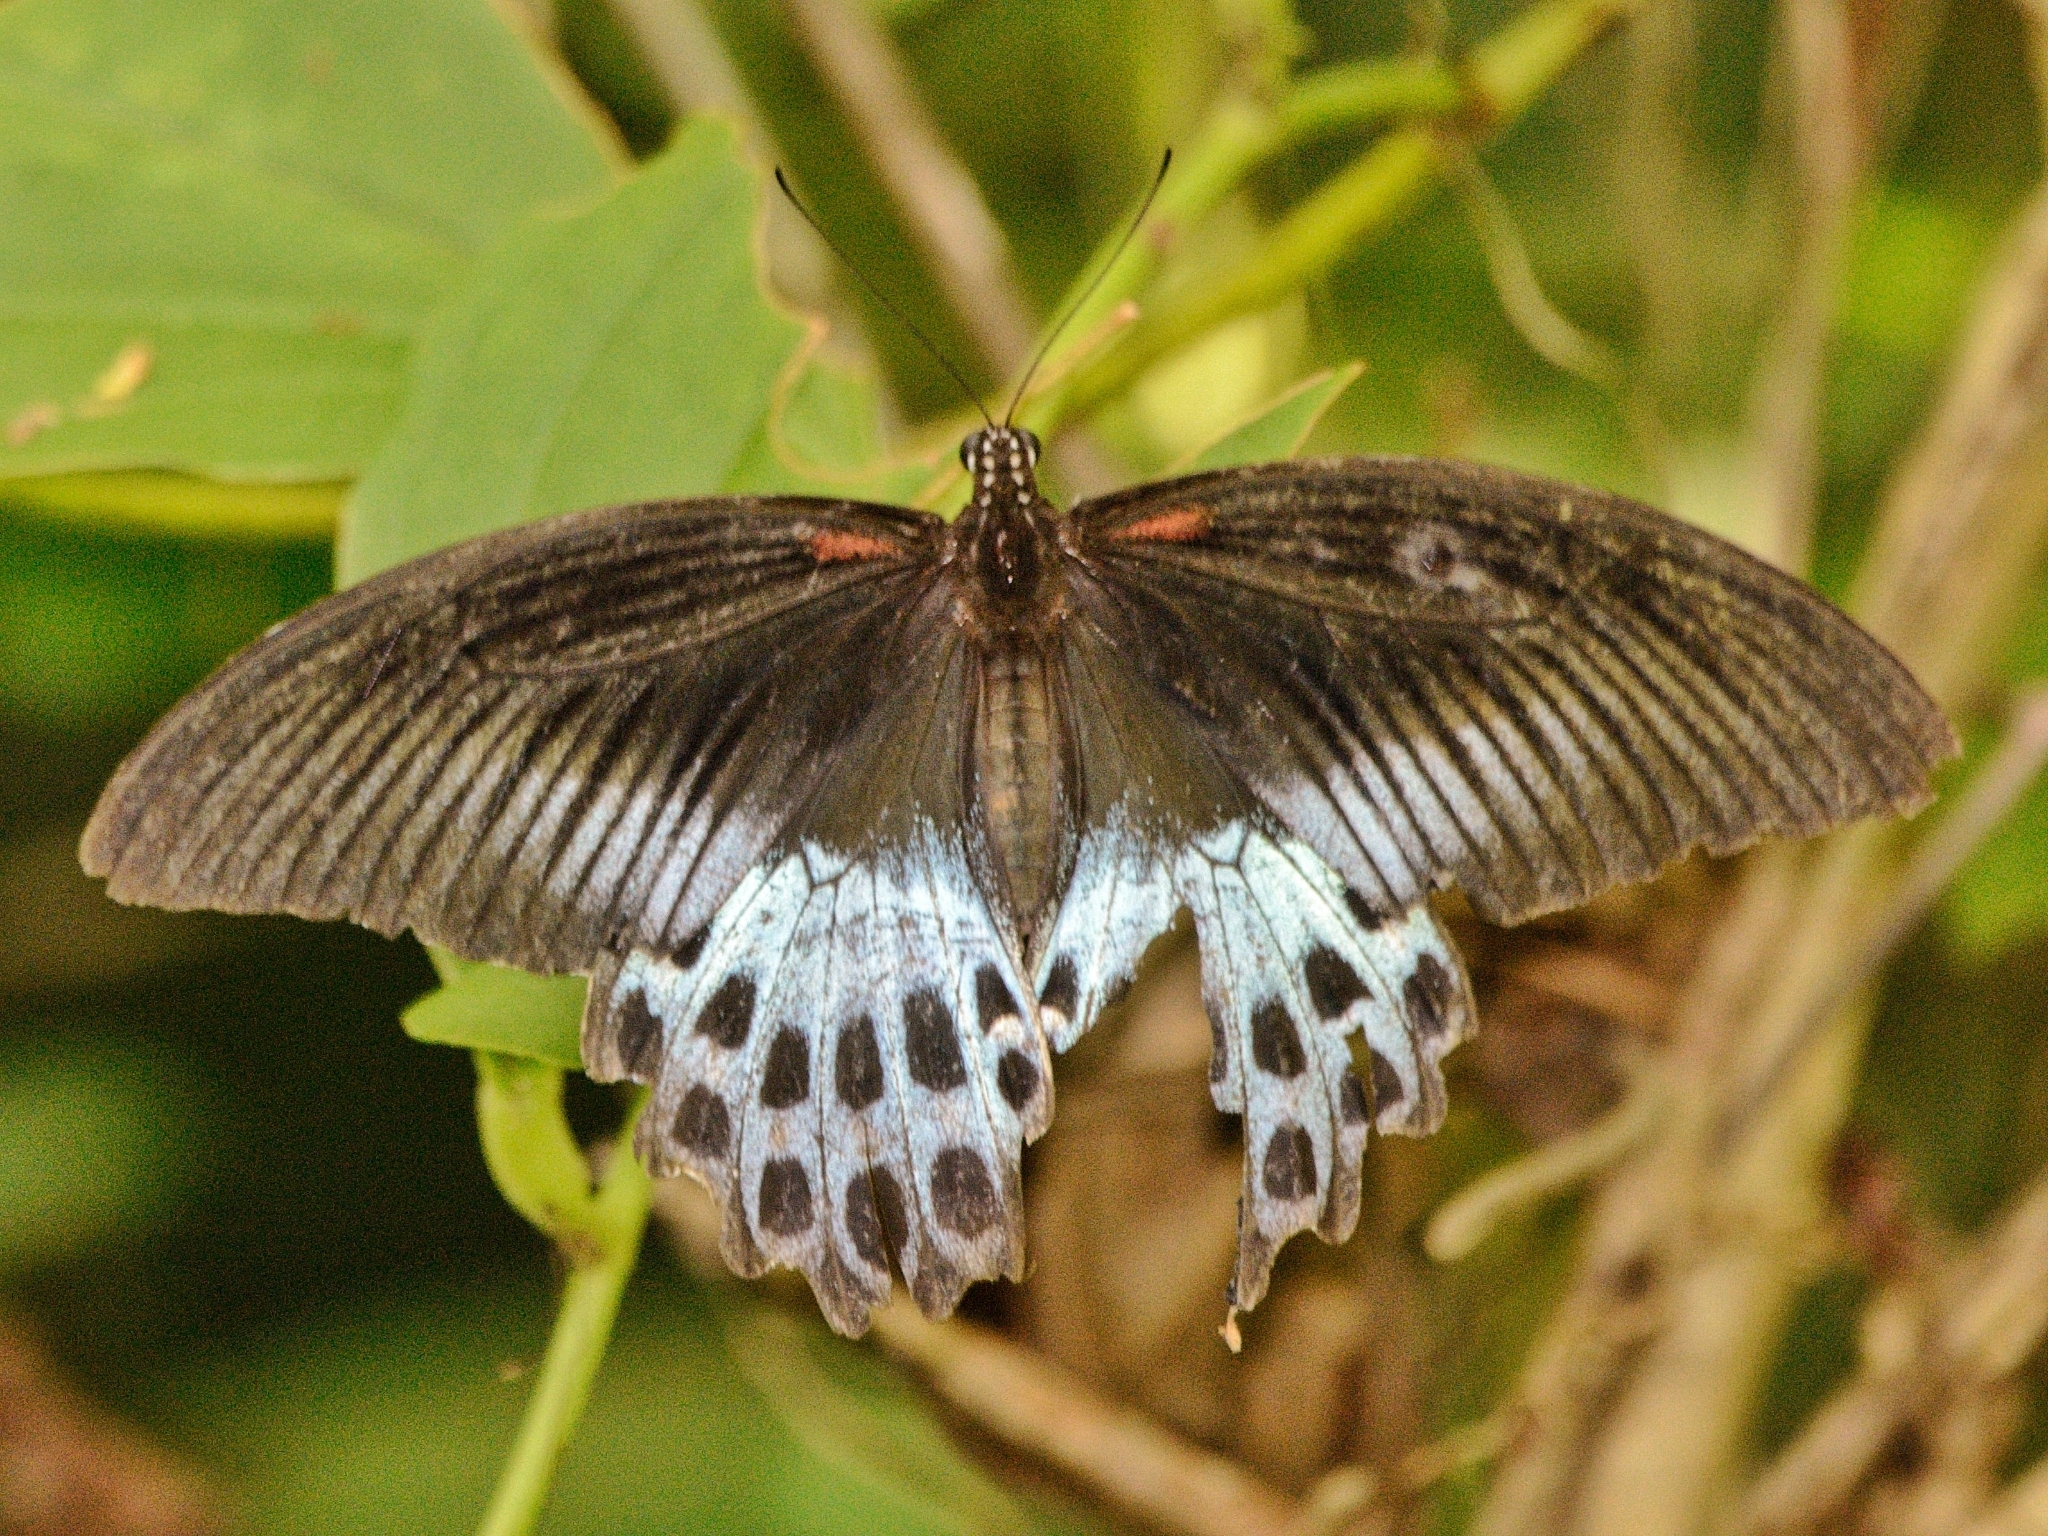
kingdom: Animalia
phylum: Arthropoda
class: Insecta
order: Lepidoptera
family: Papilionidae
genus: Papilio
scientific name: Papilio memnon
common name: Great mormon
